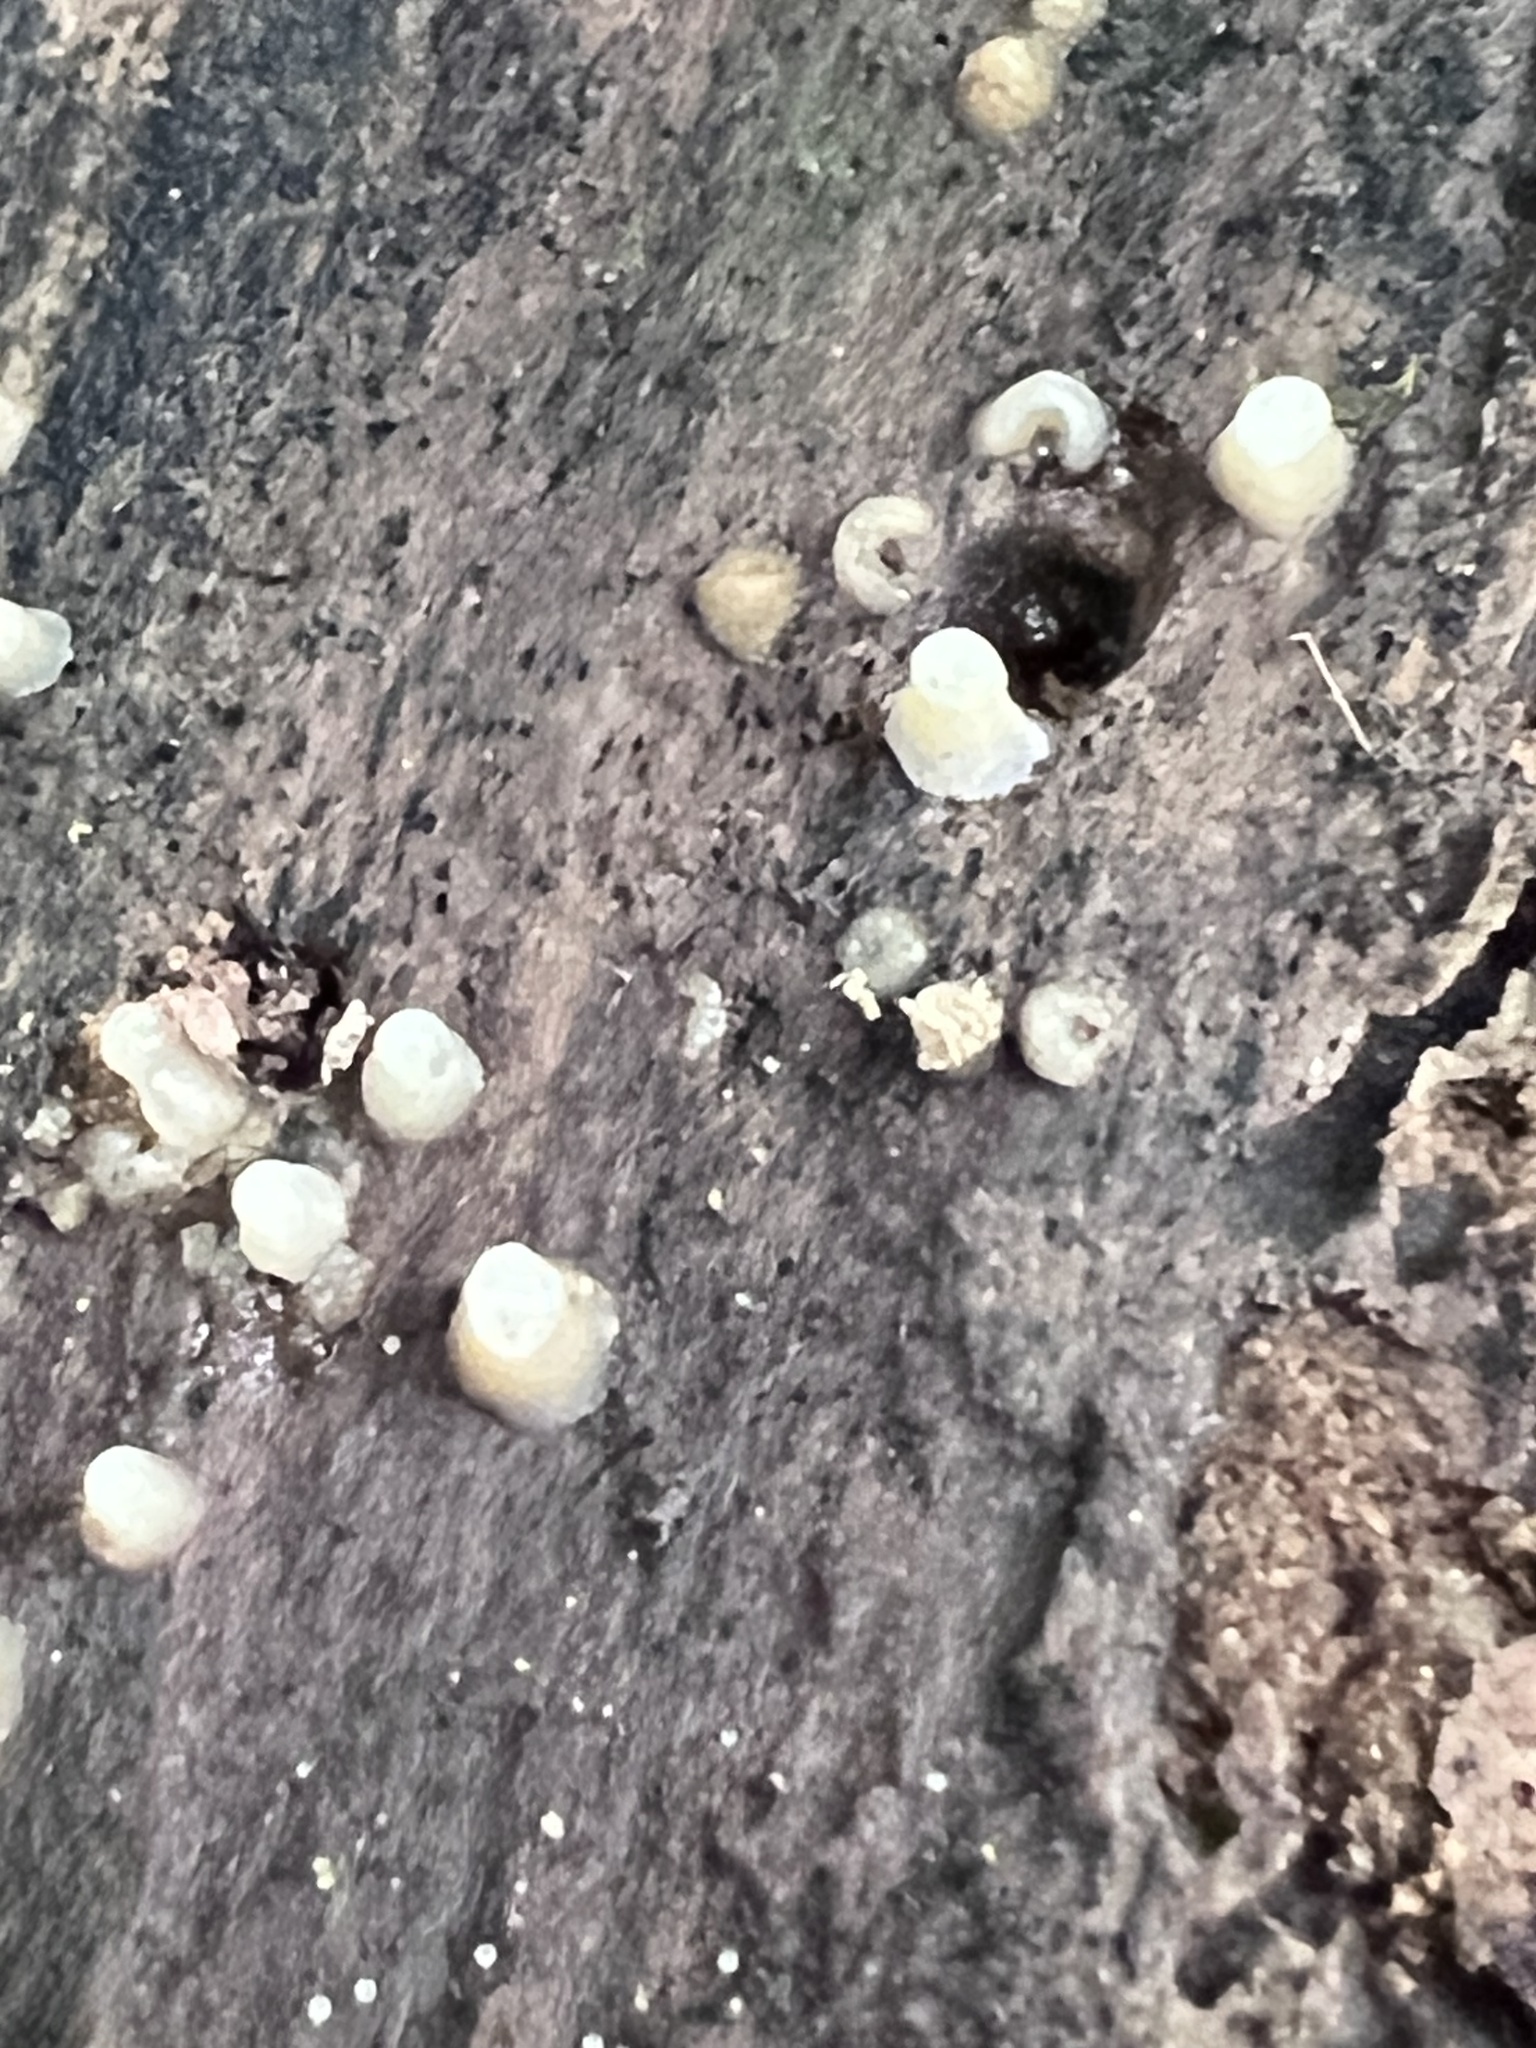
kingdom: Fungi
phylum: Basidiomycota
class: Atractiellomycetes
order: Atractiellales
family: Phleogenaceae
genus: Helicogloea
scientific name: Helicogloea compressa
